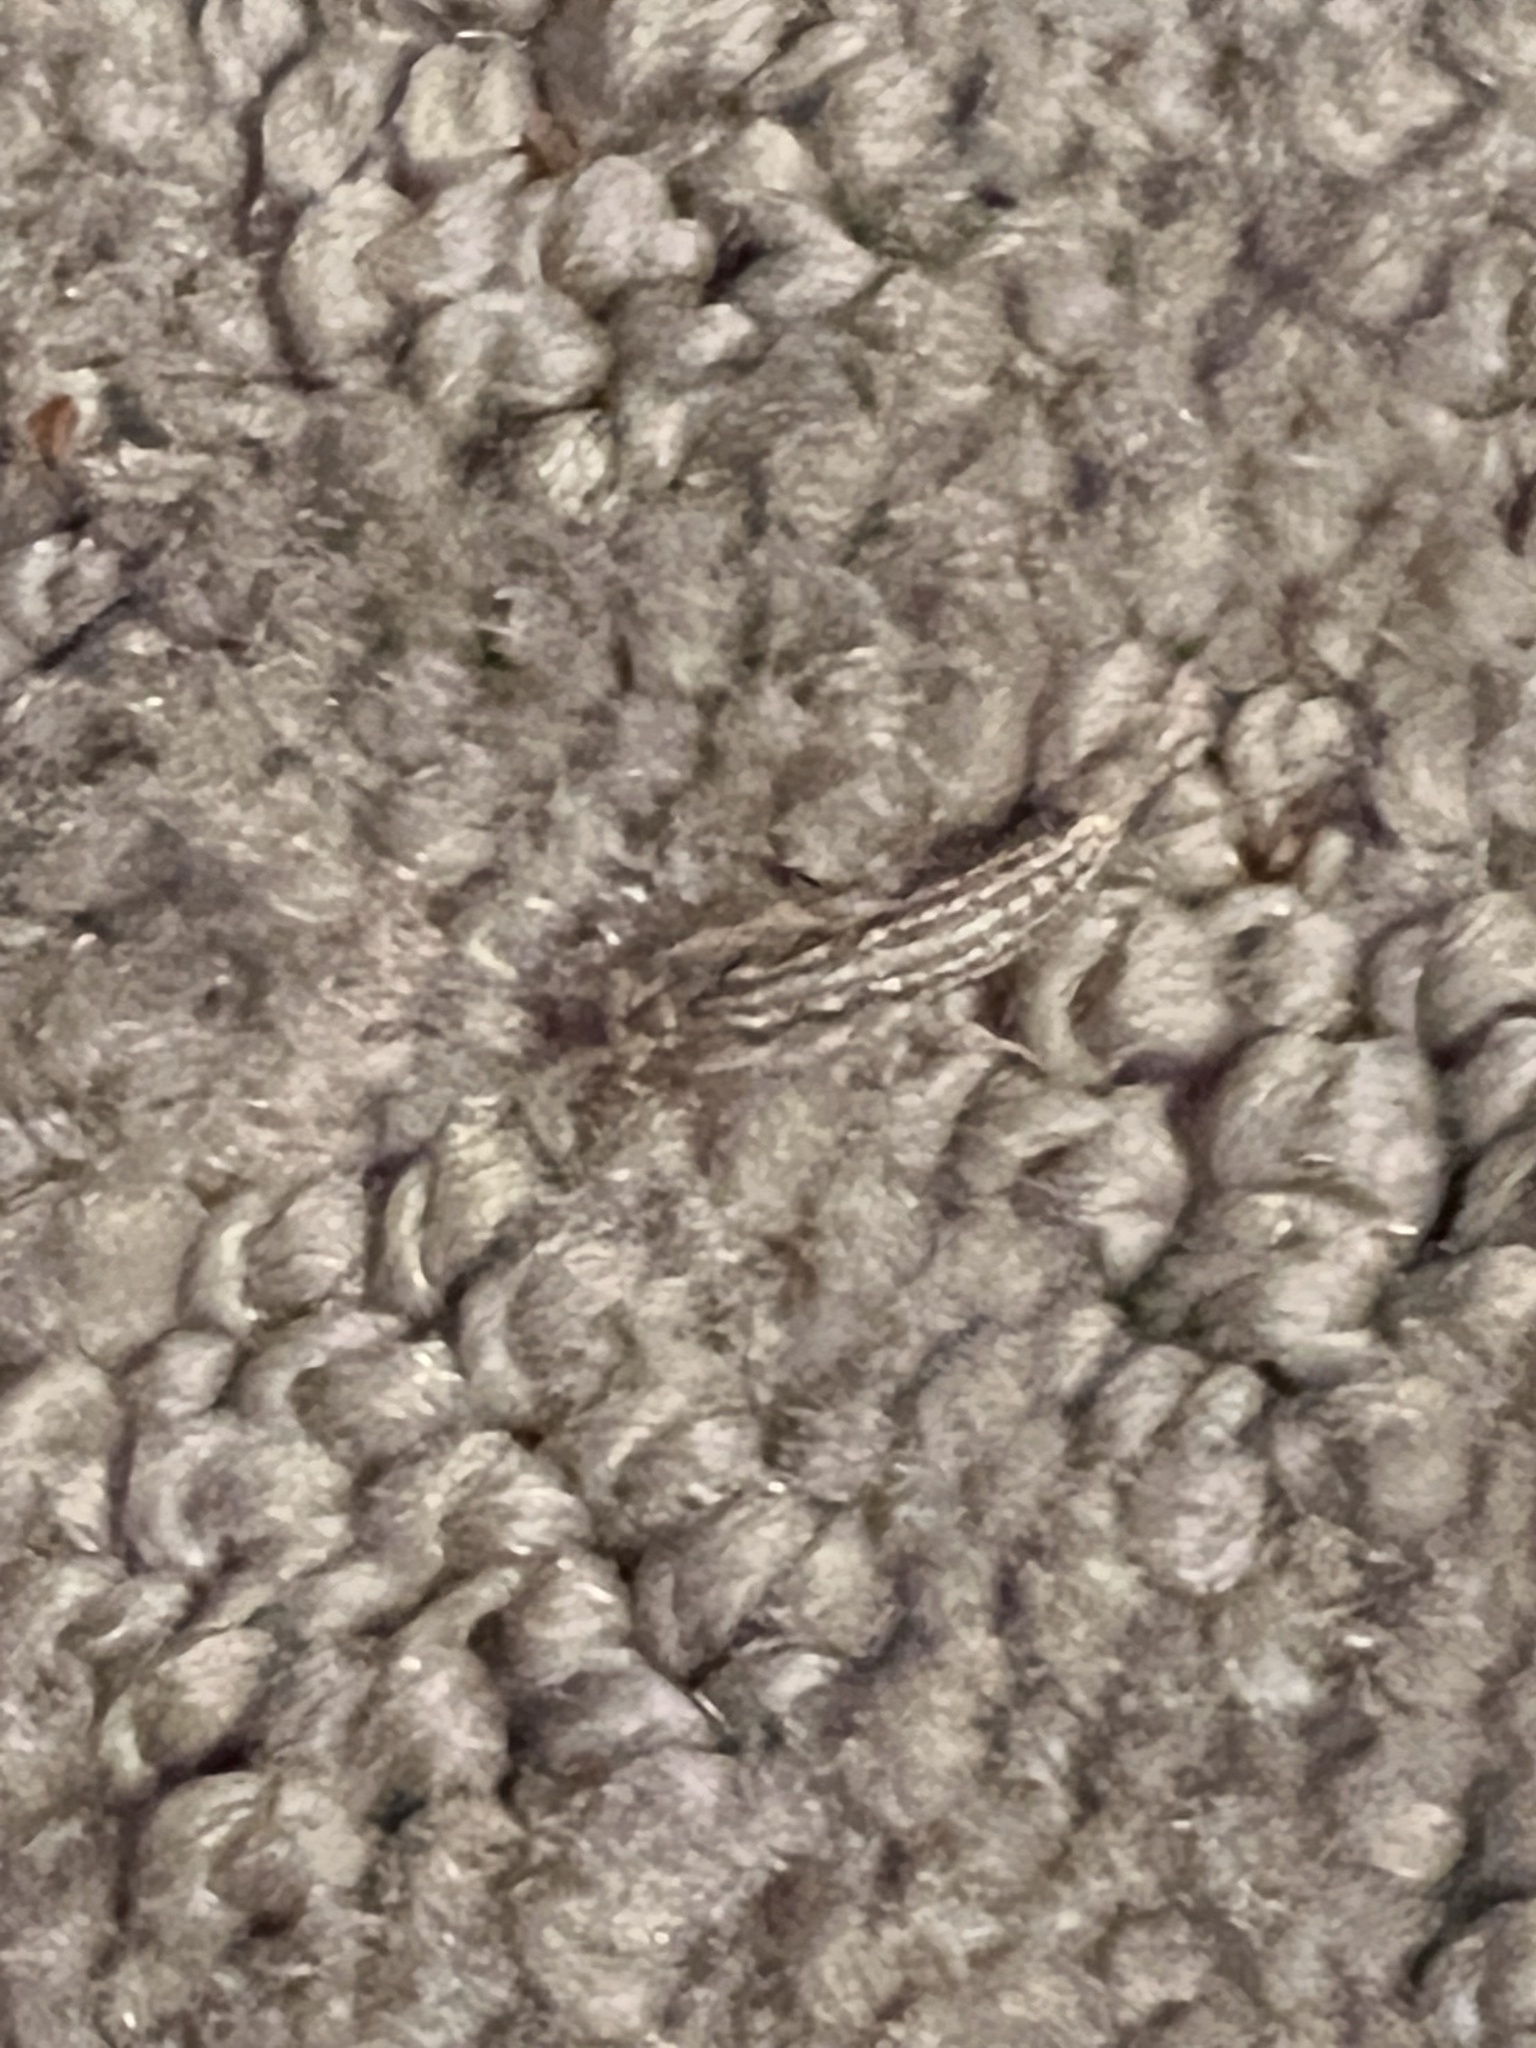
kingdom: Animalia
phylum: Arthropoda
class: Insecta
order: Zygentoma
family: Lepismatidae
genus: Ctenolepisma
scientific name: Ctenolepisma lineata
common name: Four-lined silverfish
